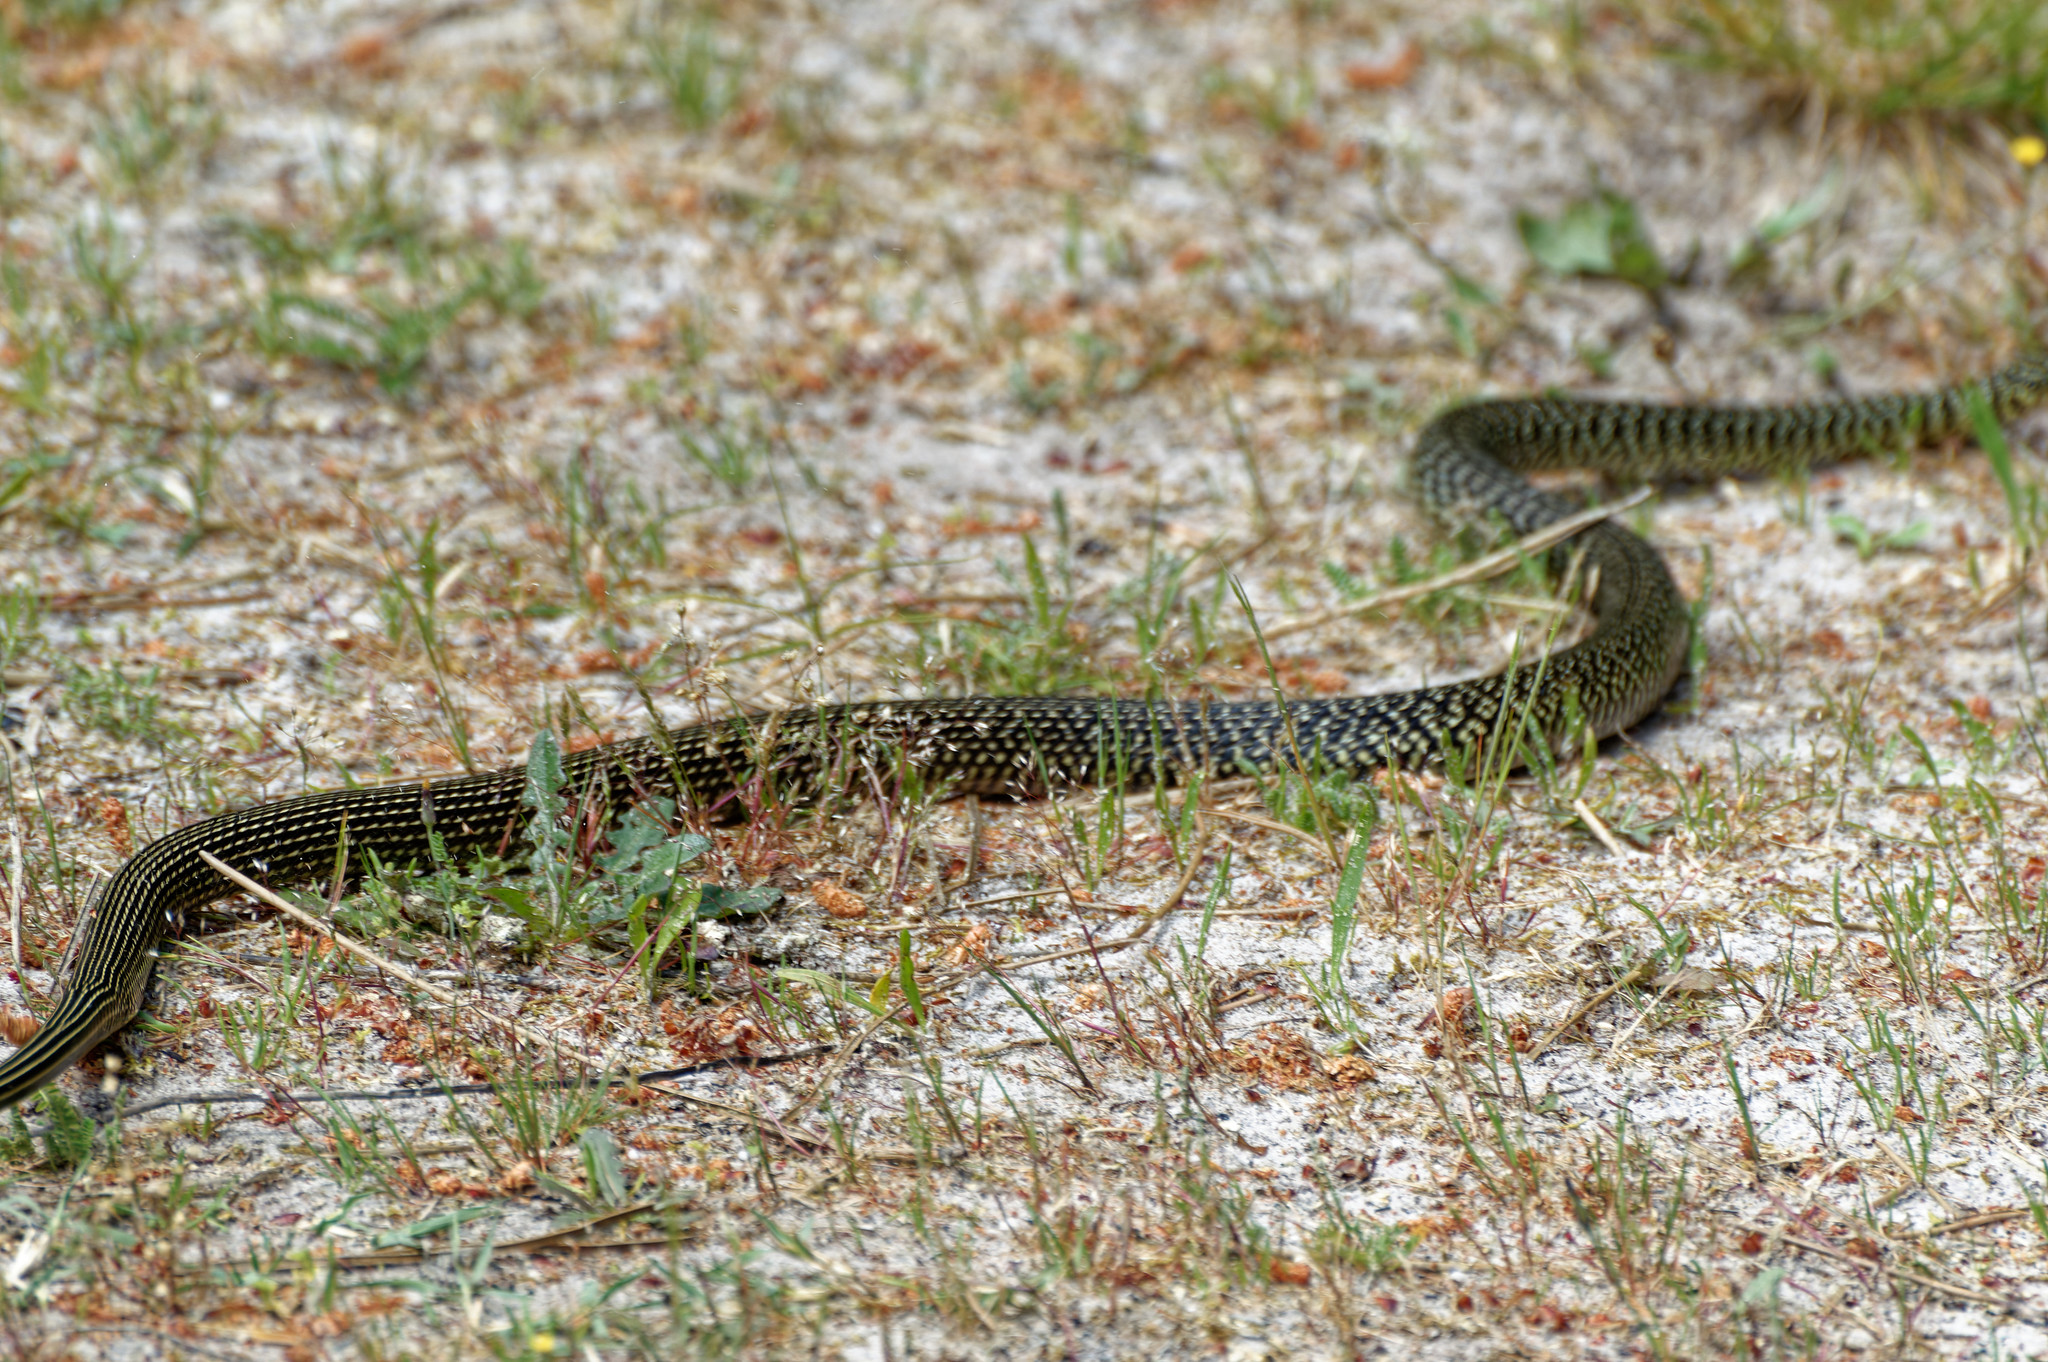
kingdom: Animalia
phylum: Chordata
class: Squamata
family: Colubridae
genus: Hierophis
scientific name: Hierophis viridiflavus
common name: Green whip snake
